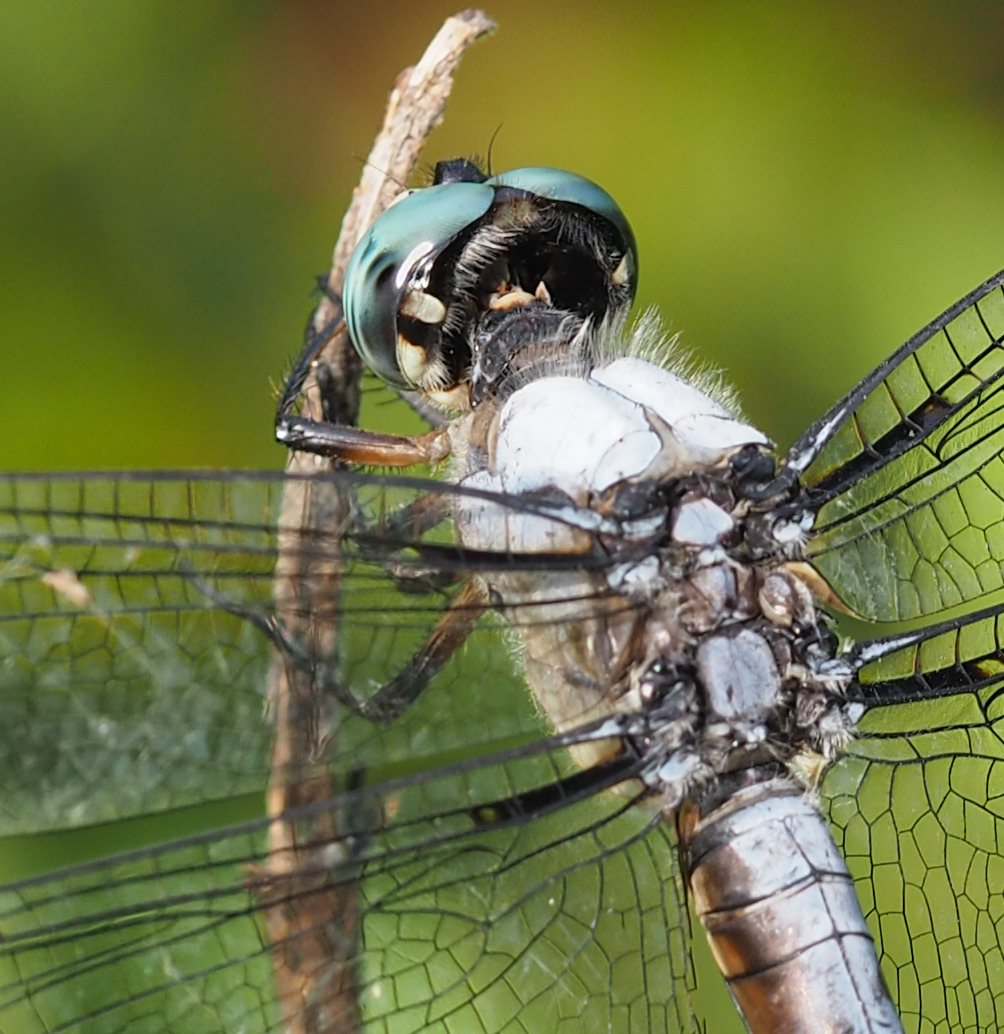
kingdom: Animalia
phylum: Arthropoda
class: Insecta
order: Odonata
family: Libellulidae
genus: Libellula
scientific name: Libellula vibrans
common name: Great blue skimmer
